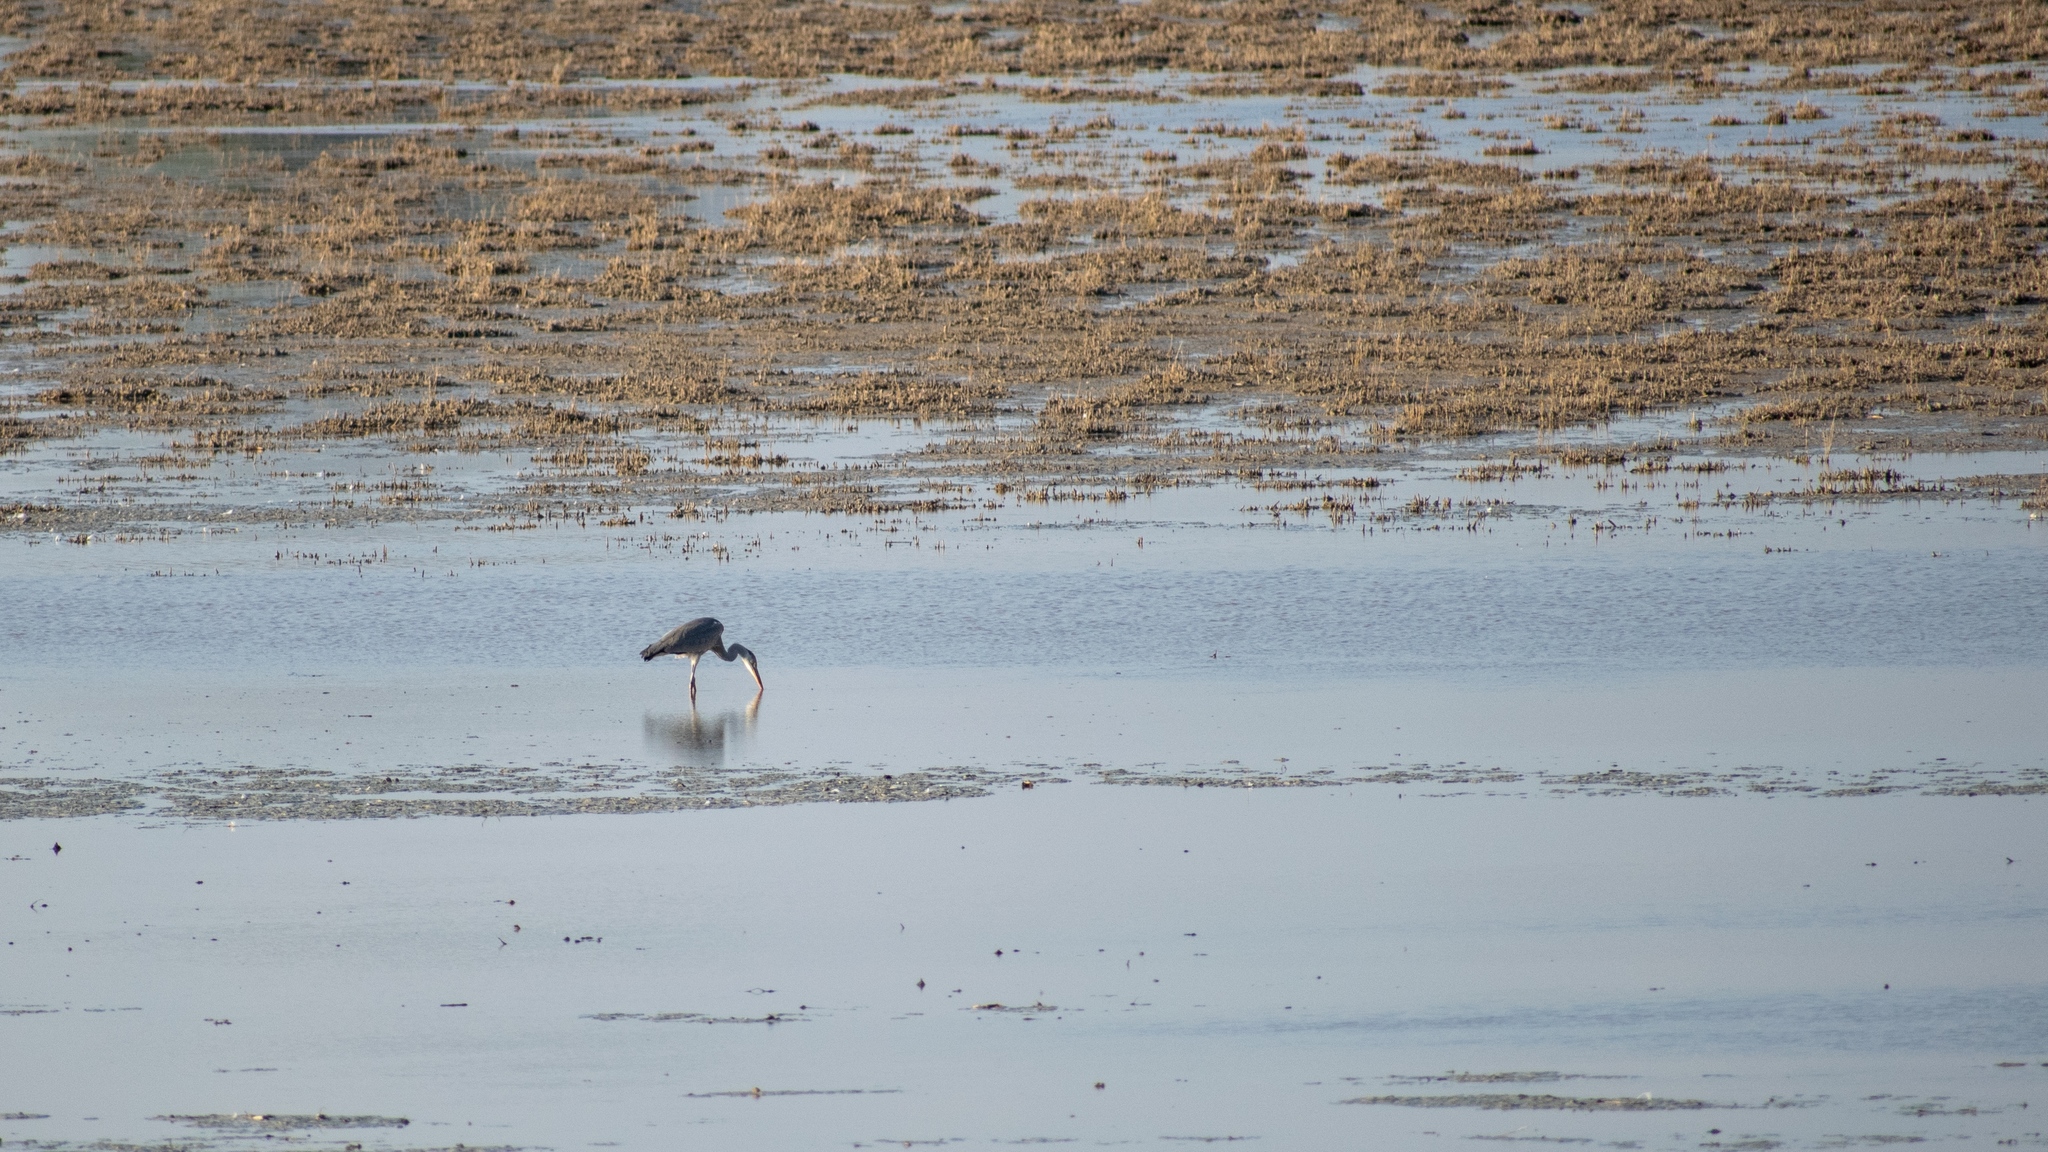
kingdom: Animalia
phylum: Chordata
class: Aves
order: Pelecaniformes
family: Ardeidae
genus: Ardea
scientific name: Ardea cinerea
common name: Grey heron
